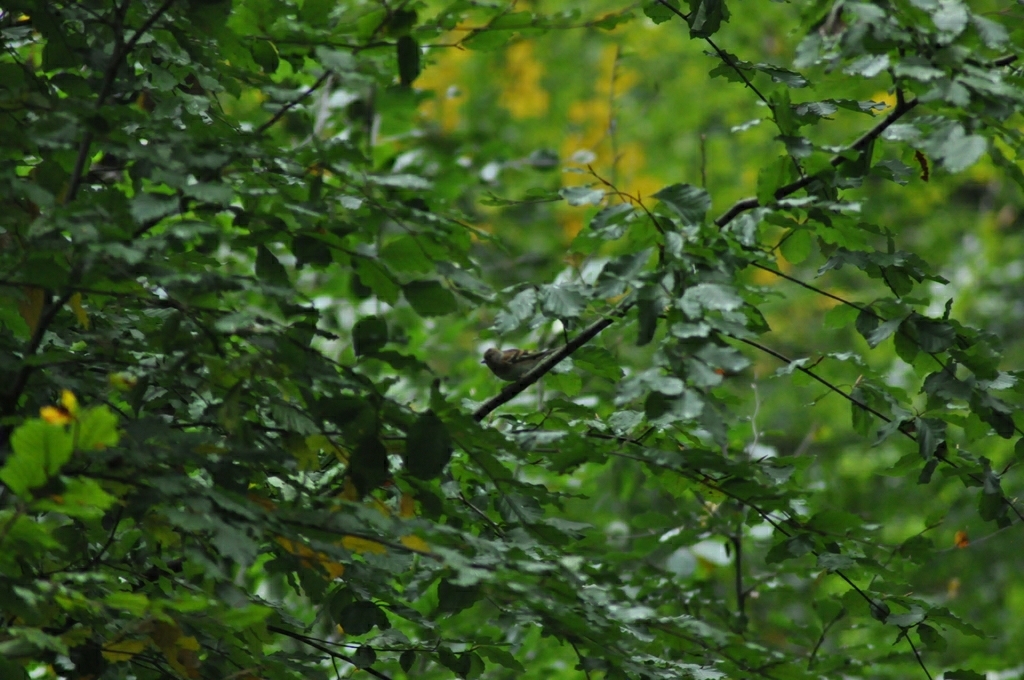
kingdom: Animalia
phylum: Chordata
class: Aves
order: Passeriformes
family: Fringillidae
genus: Fringilla
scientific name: Fringilla montifringilla
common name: Brambling
